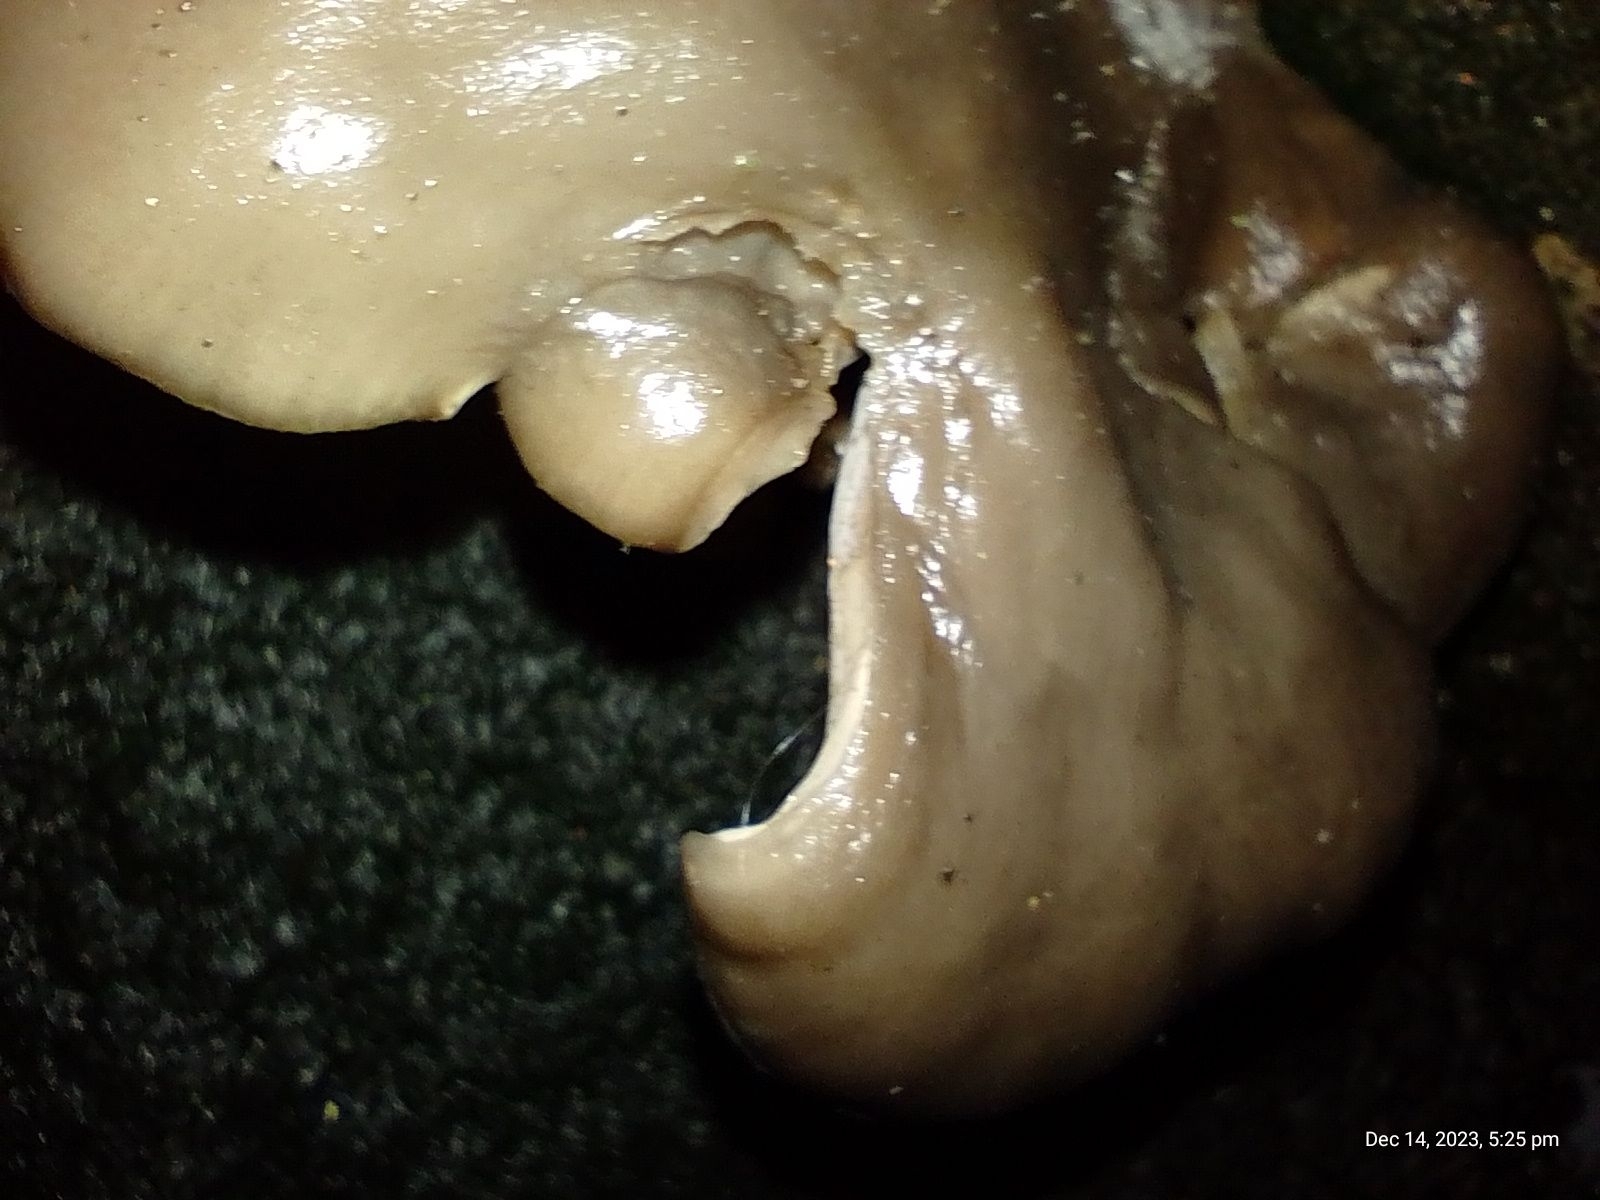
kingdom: Fungi
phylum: Basidiomycota
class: Agaricomycetes
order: Agaricales
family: Pleurotaceae
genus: Pleurotus
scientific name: Pleurotus ostreatus
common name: Oyster mushroom
